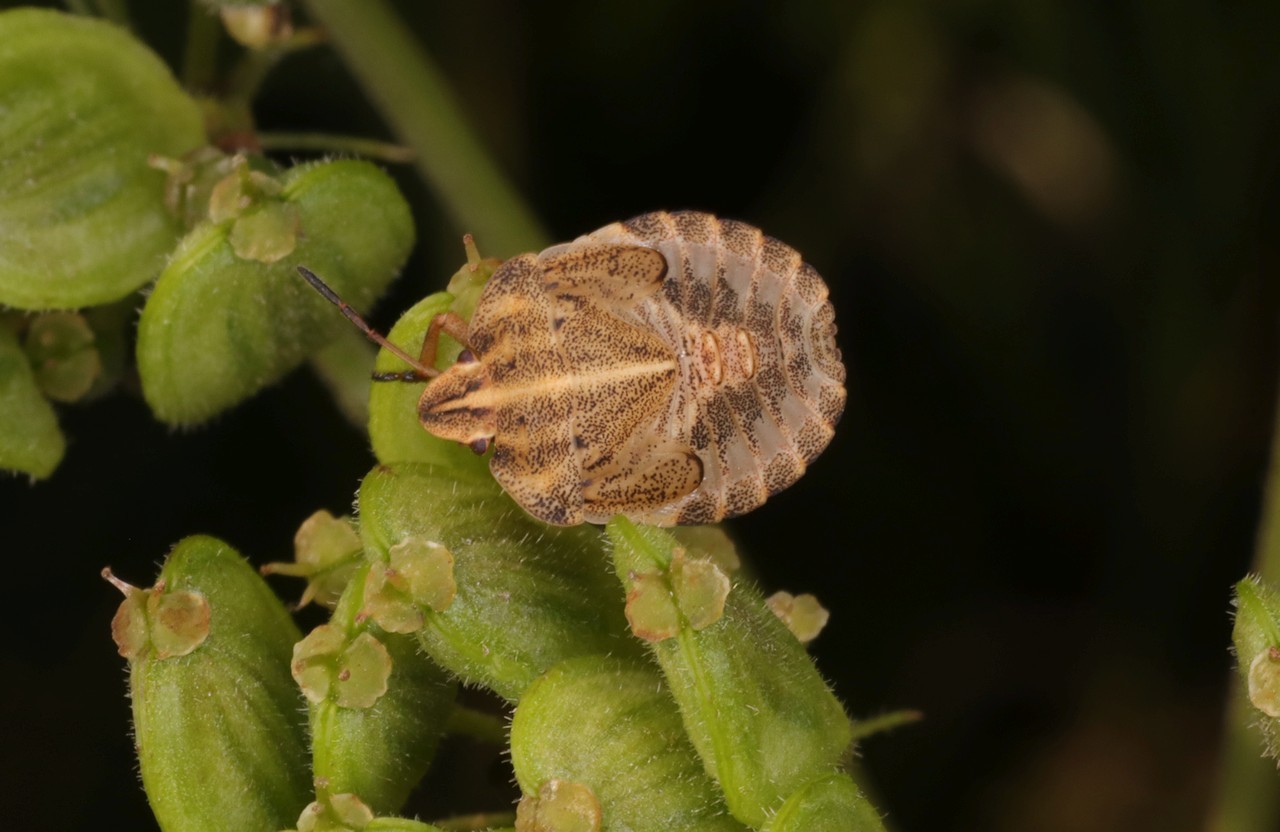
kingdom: Animalia
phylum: Arthropoda
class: Insecta
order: Hemiptera
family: Pentatomidae
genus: Graphosoma
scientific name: Graphosoma italicum
